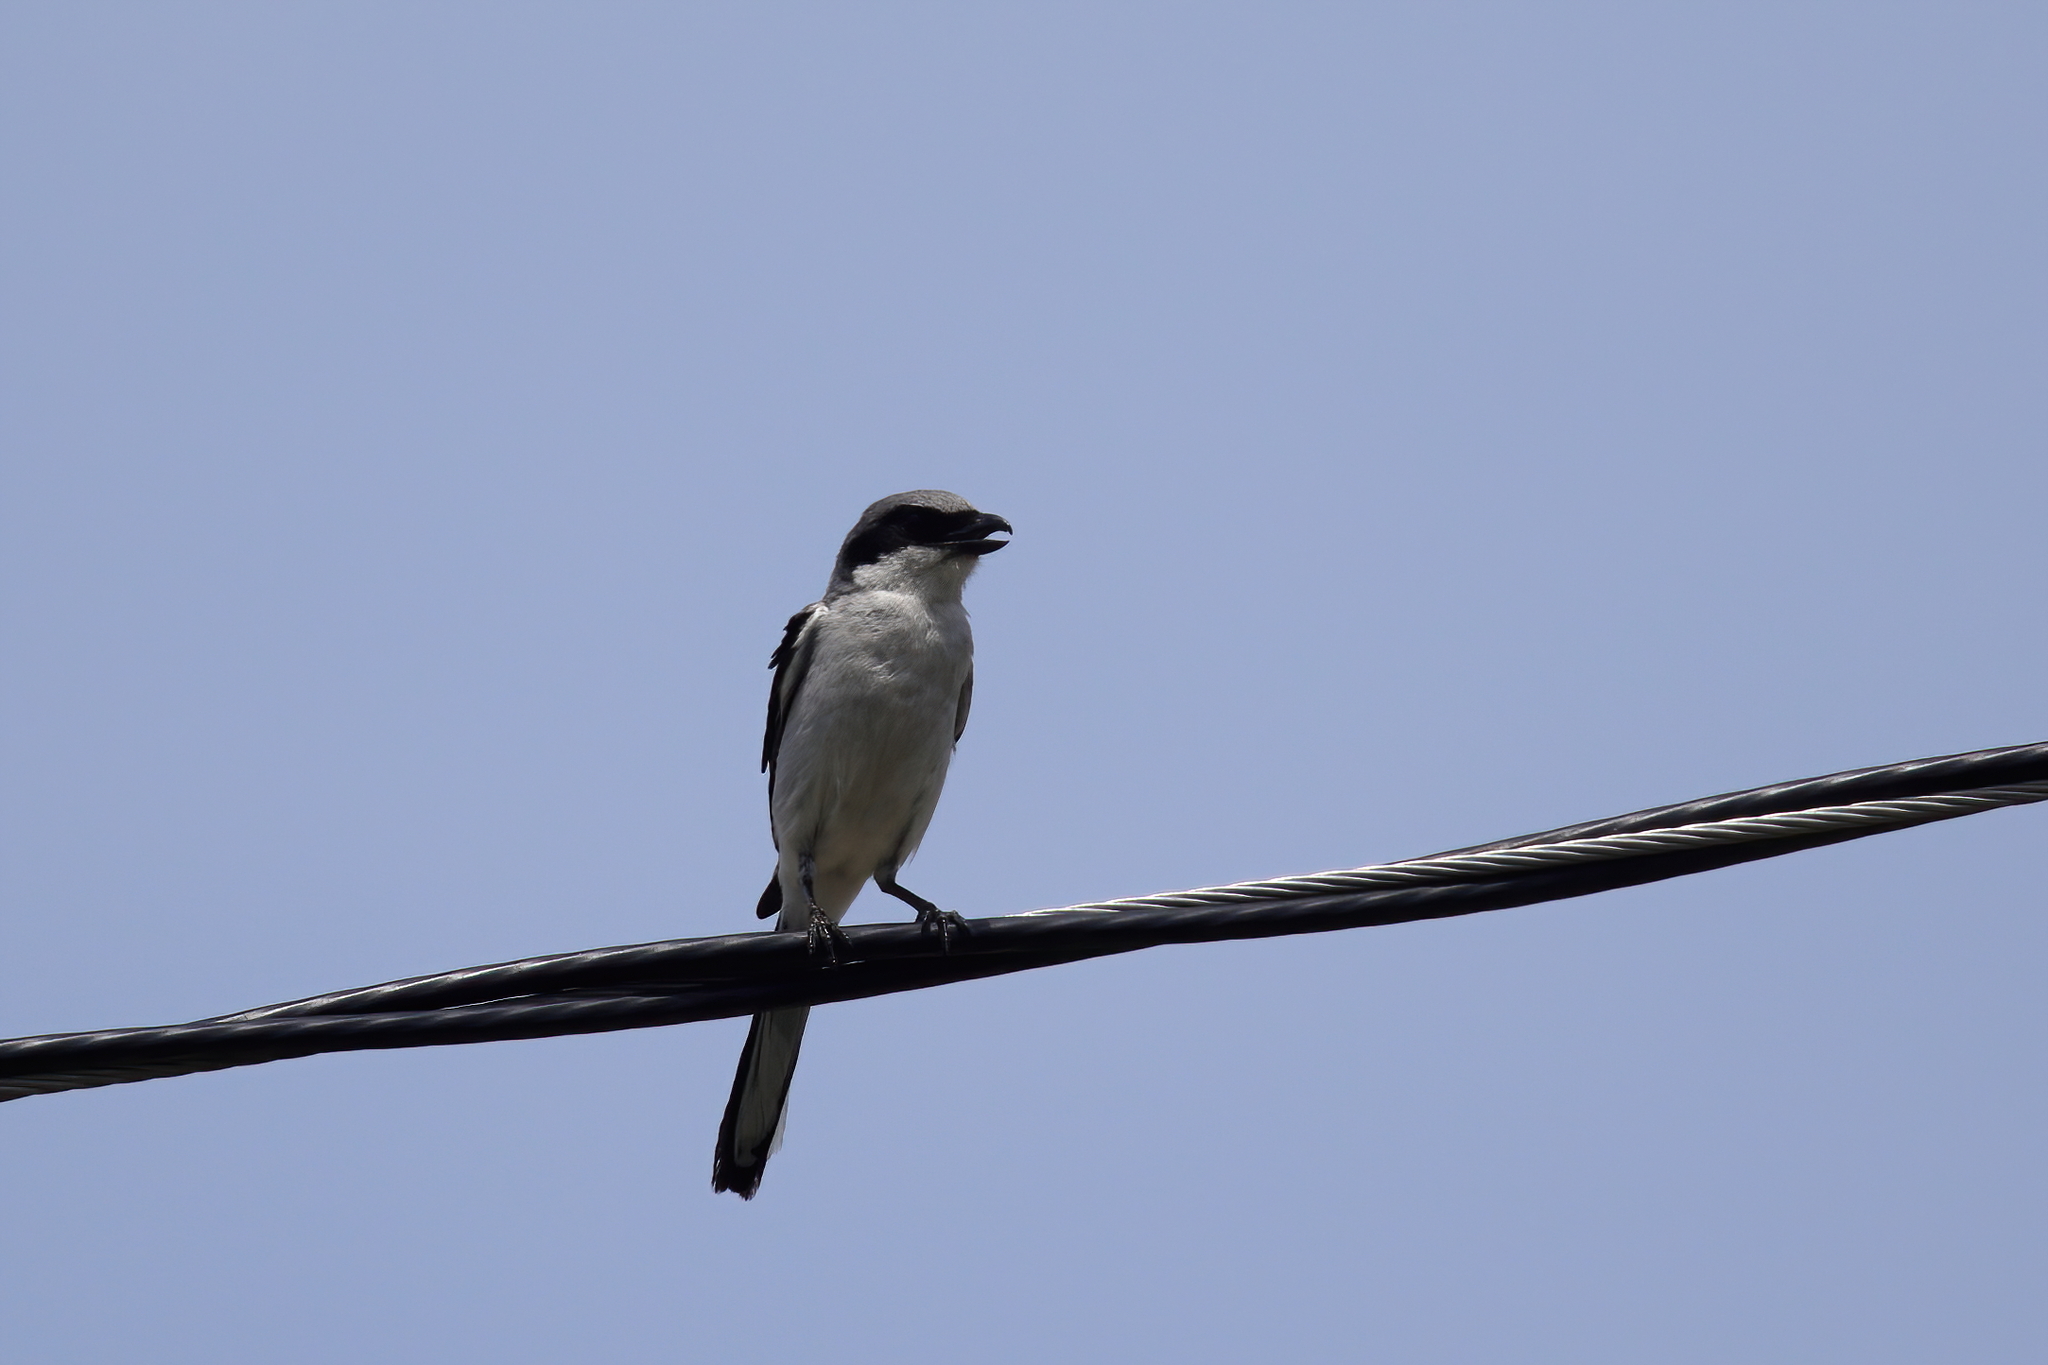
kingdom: Animalia
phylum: Chordata
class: Aves
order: Passeriformes
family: Laniidae
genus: Lanius
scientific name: Lanius ludovicianus
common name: Loggerhead shrike
